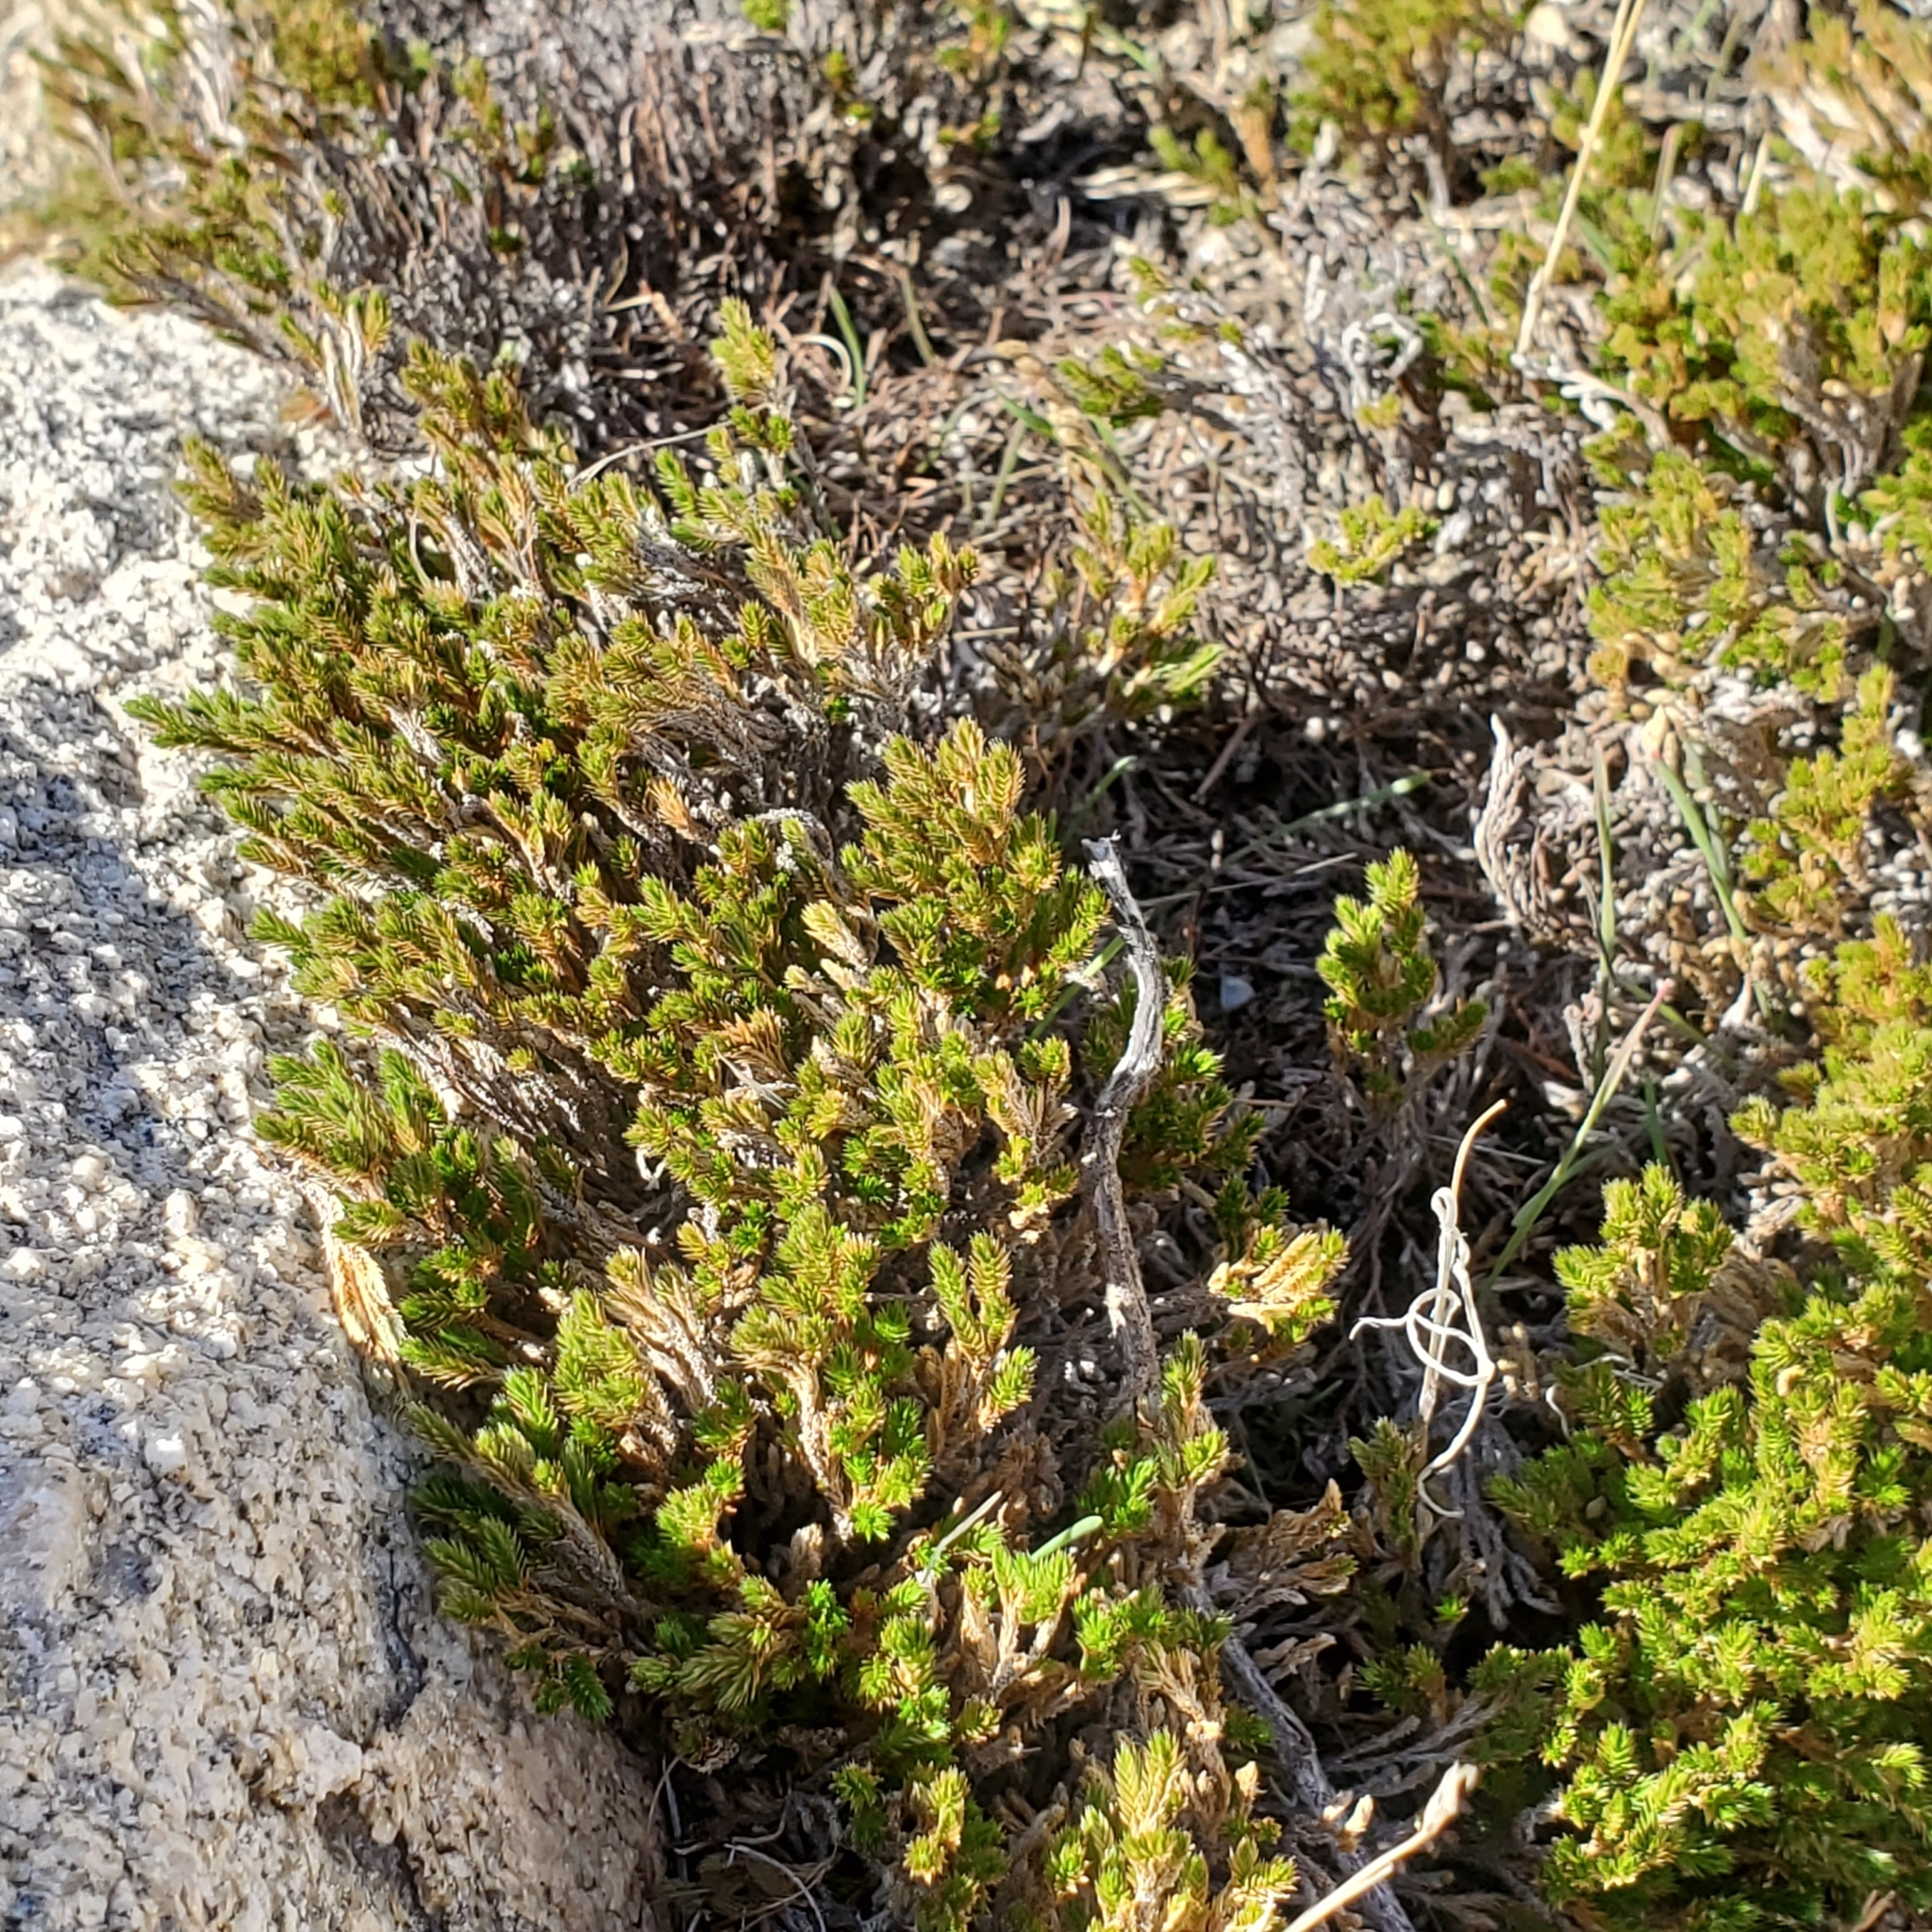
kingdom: Plantae
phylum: Tracheophyta
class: Lycopodiopsida
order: Selaginellales
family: Selaginellaceae
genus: Selaginella
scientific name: Selaginella bigelovii
